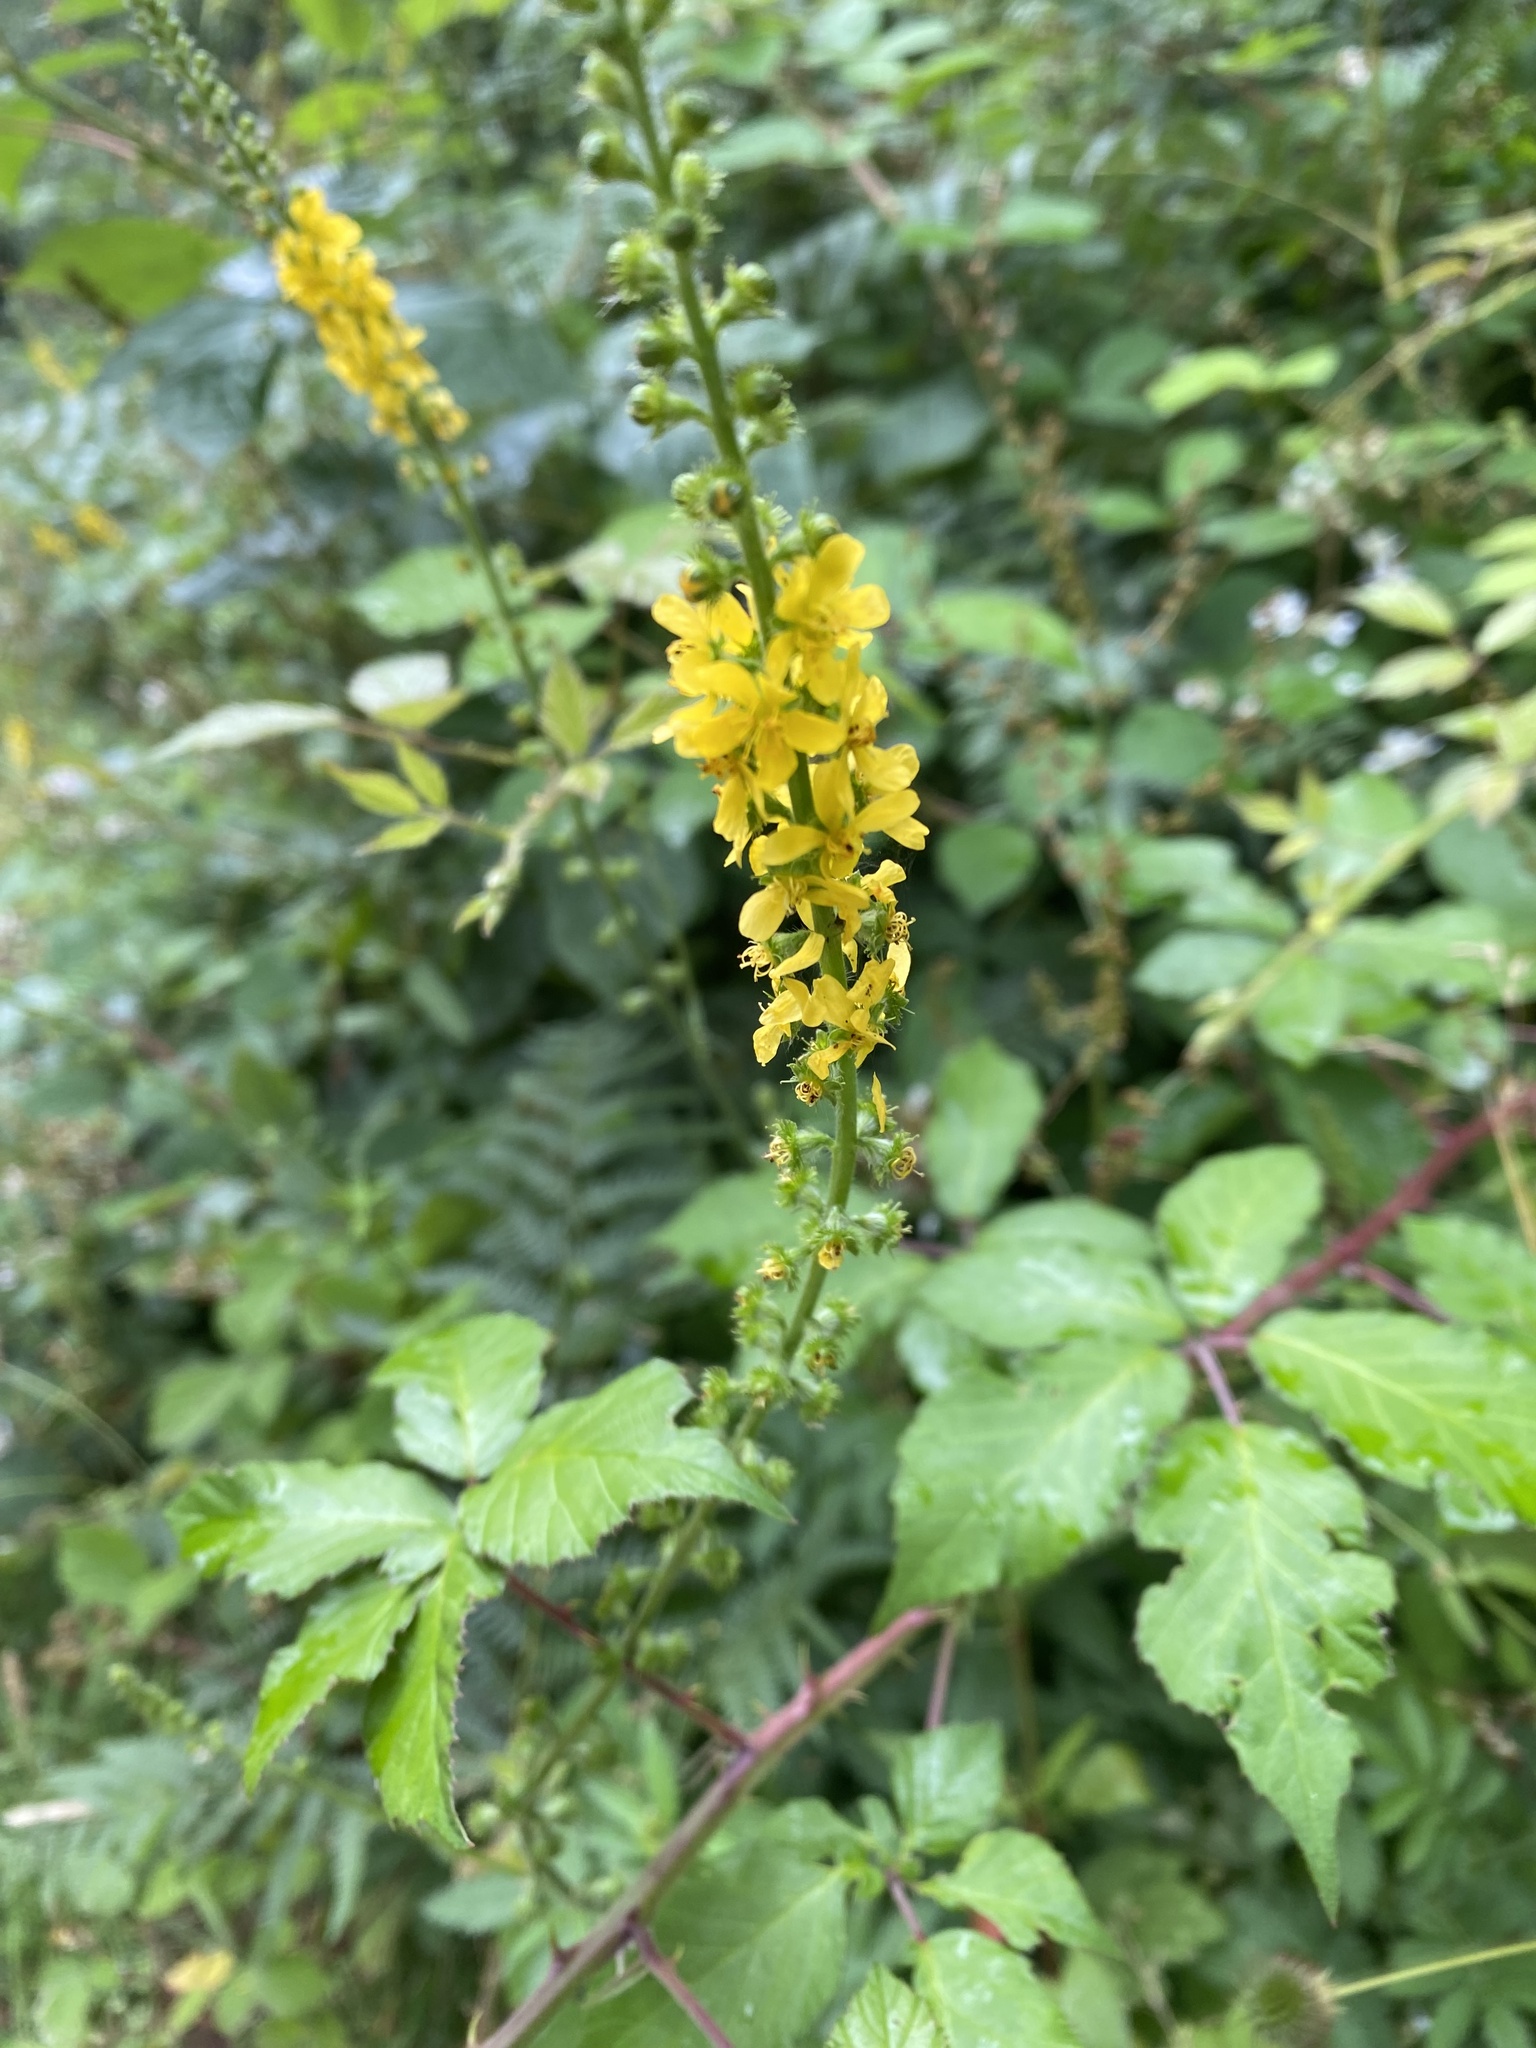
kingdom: Plantae
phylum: Tracheophyta
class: Magnoliopsida
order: Rosales
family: Rosaceae
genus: Agrimonia
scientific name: Agrimonia eupatoria
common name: Agrimony
